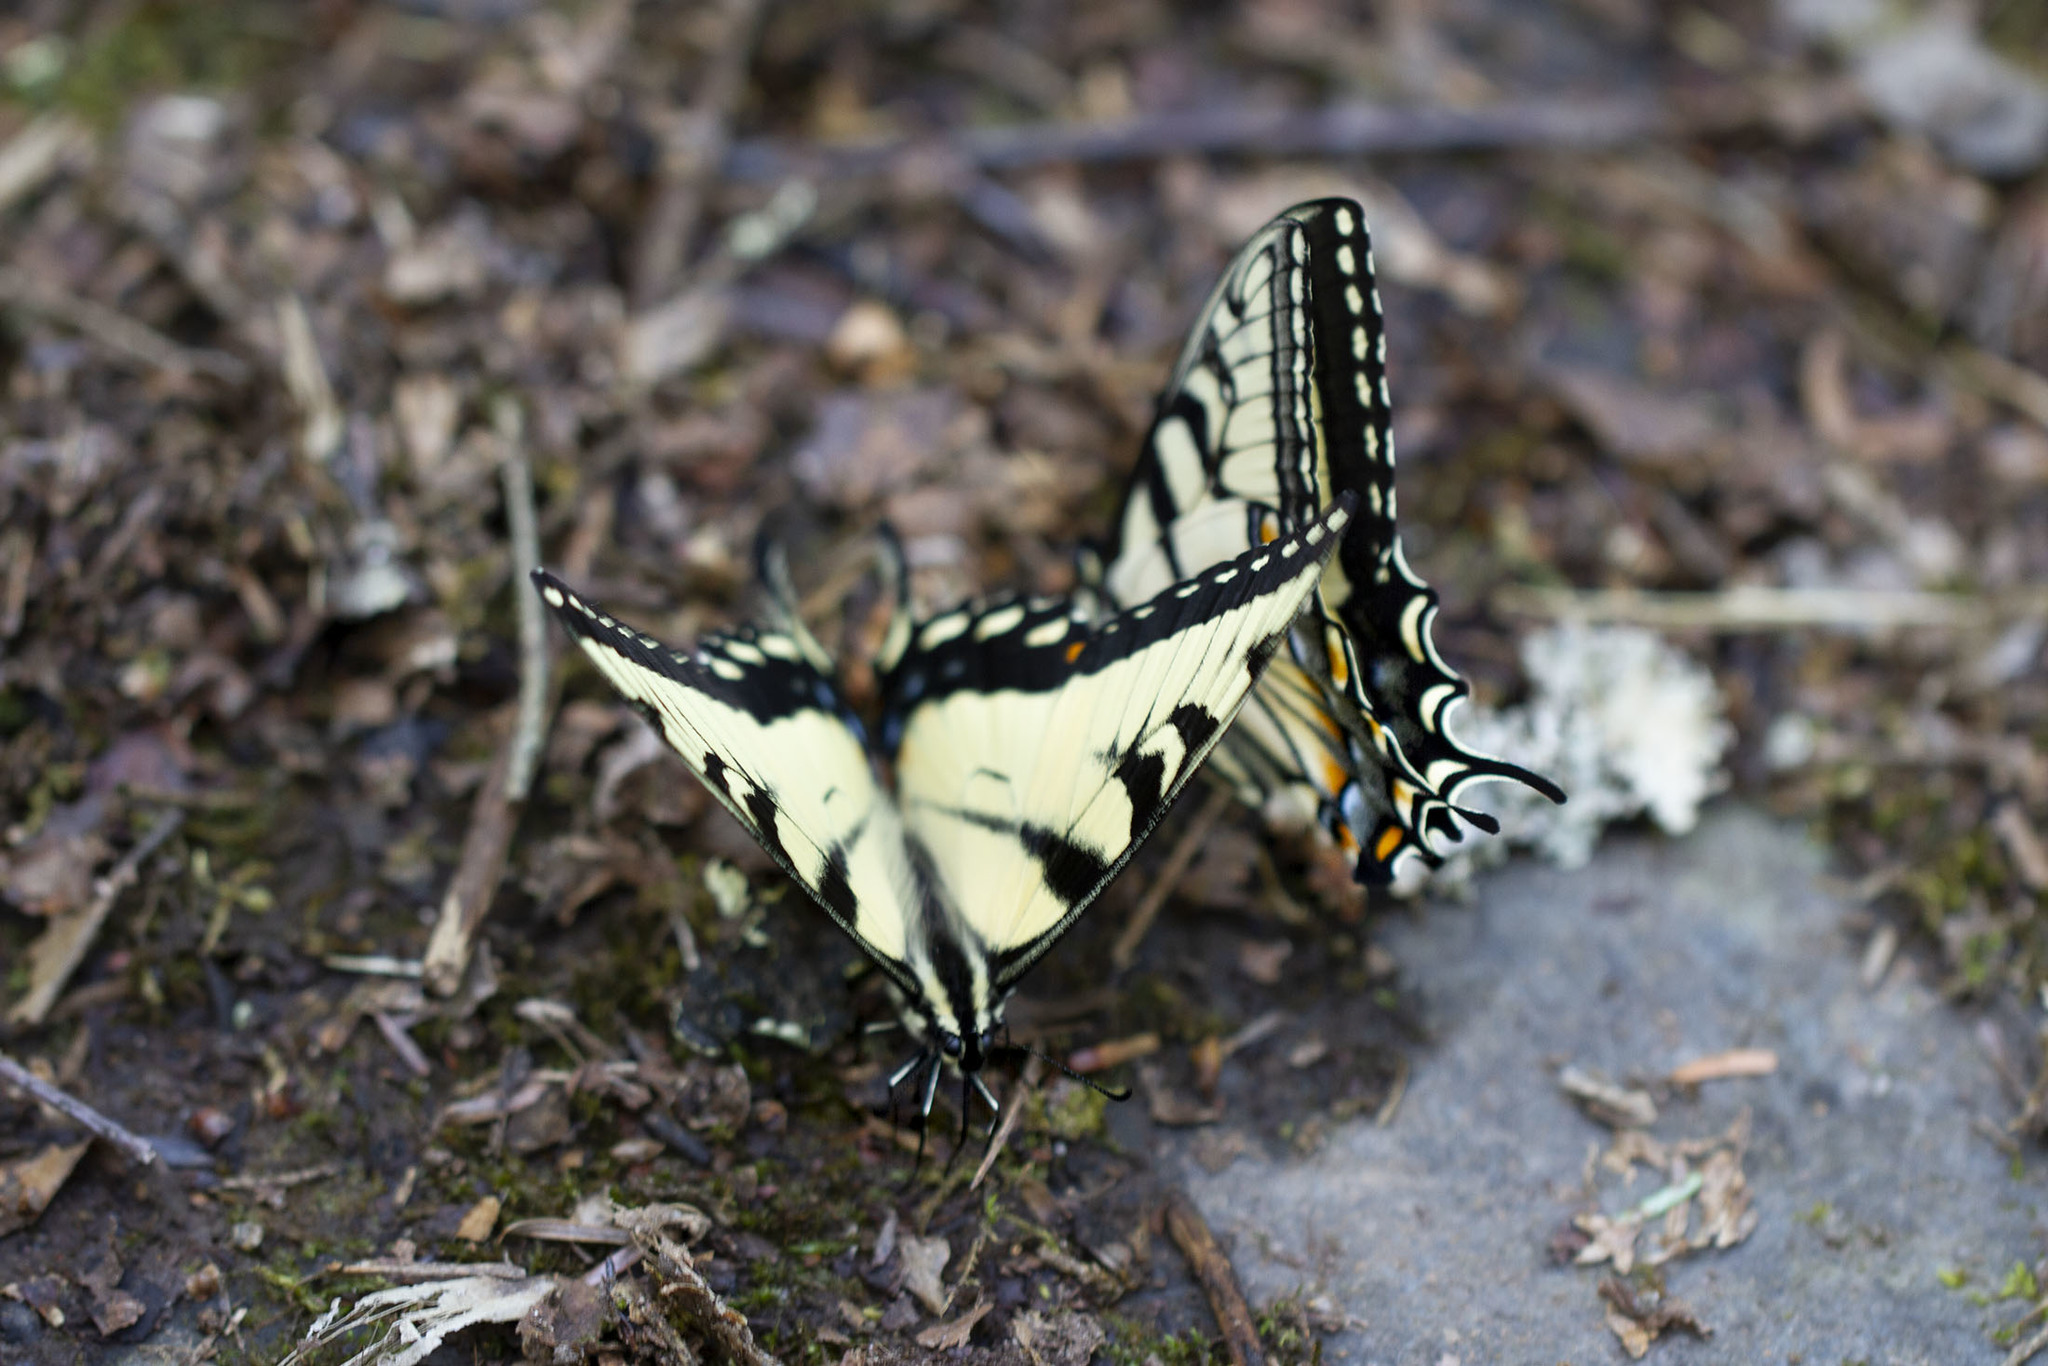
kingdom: Animalia
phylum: Arthropoda
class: Insecta
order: Lepidoptera
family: Papilionidae
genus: Papilio
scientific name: Papilio glaucus
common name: Tiger swallowtail
